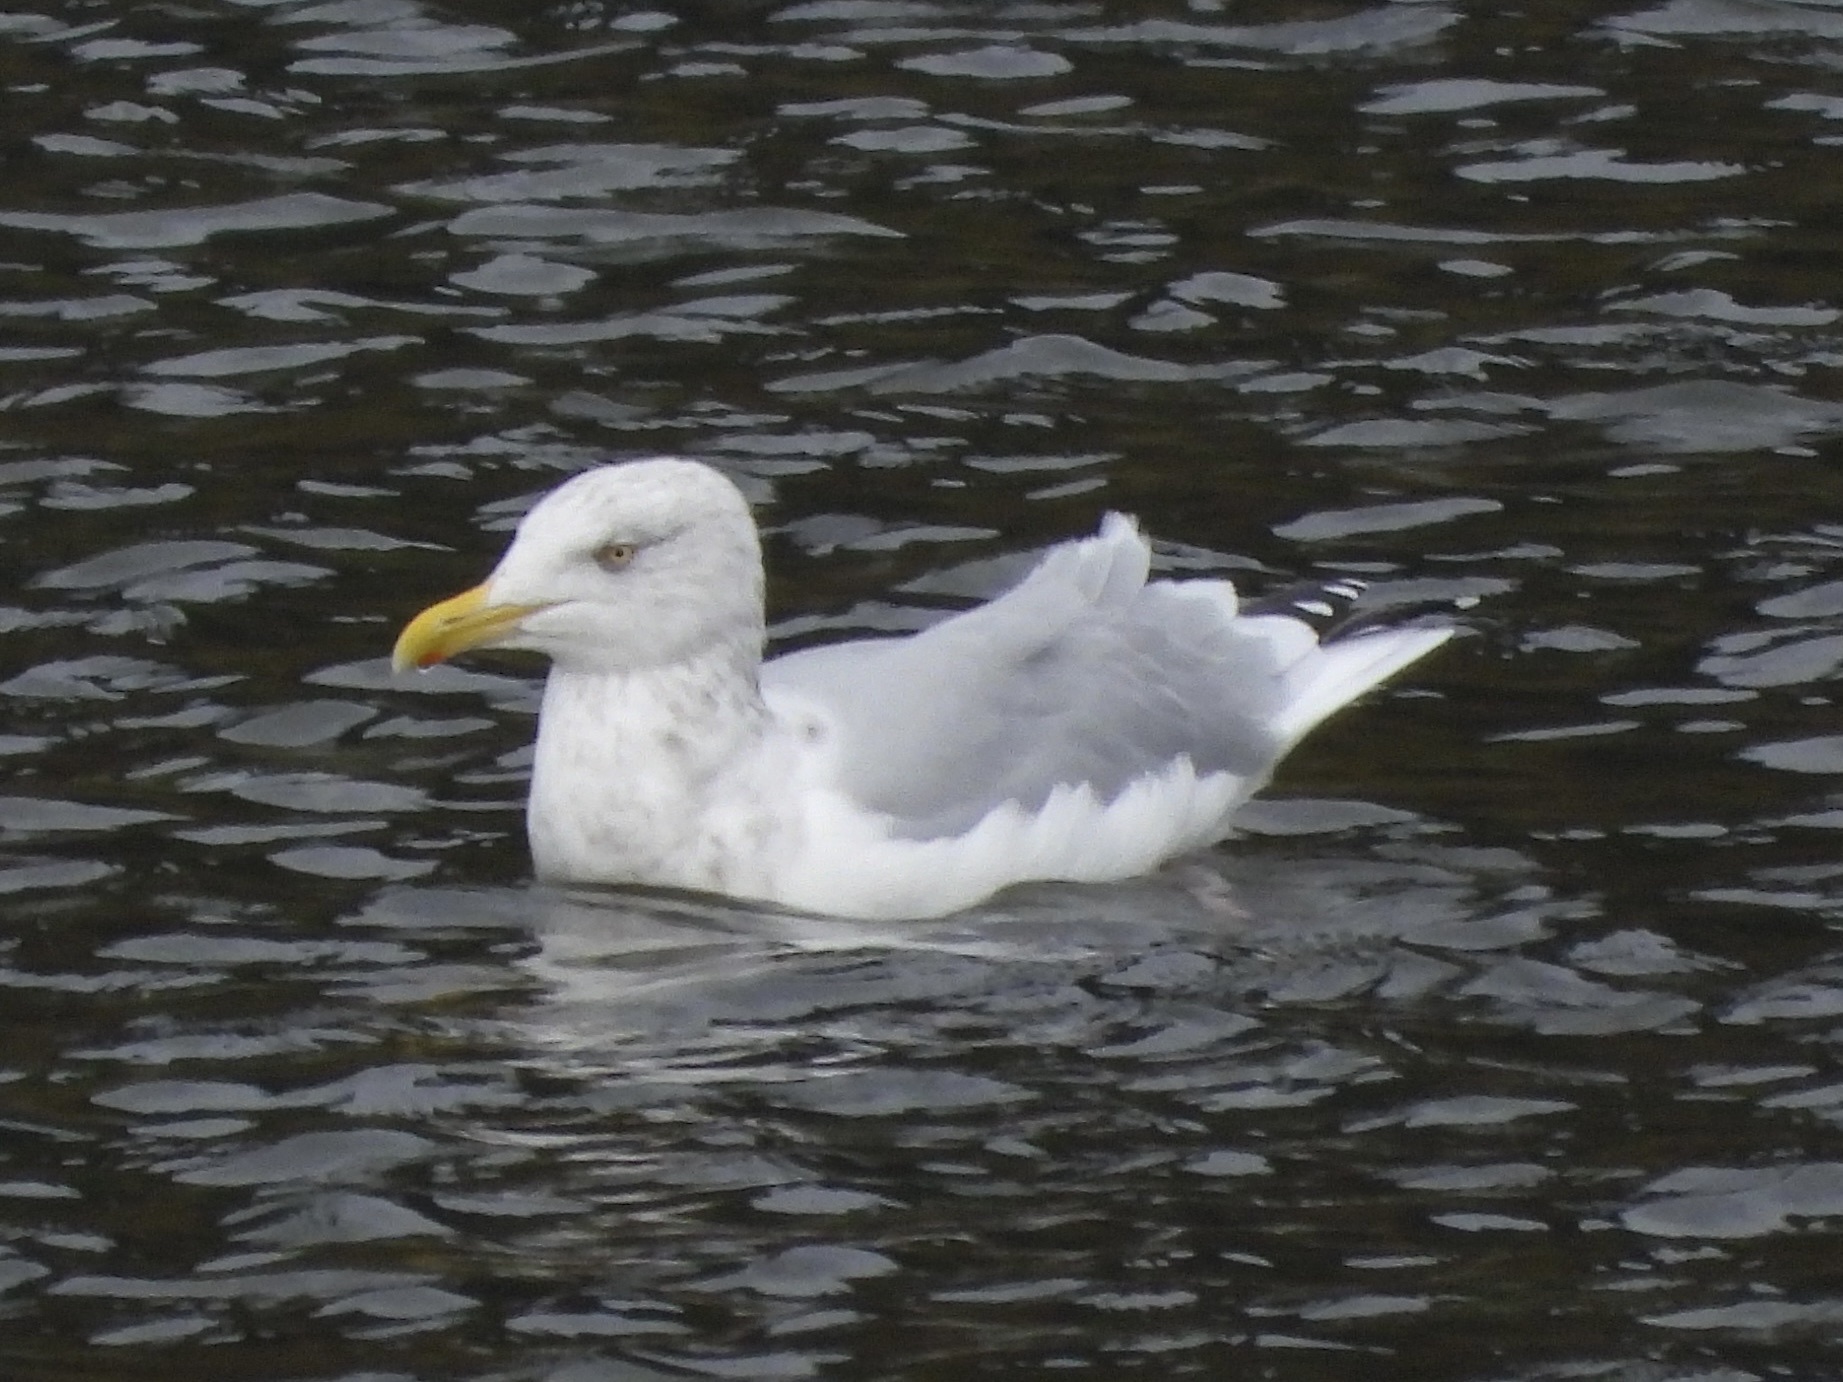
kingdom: Animalia
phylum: Chordata
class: Aves
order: Charadriiformes
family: Laridae
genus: Larus
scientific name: Larus argentatus
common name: Herring gull
